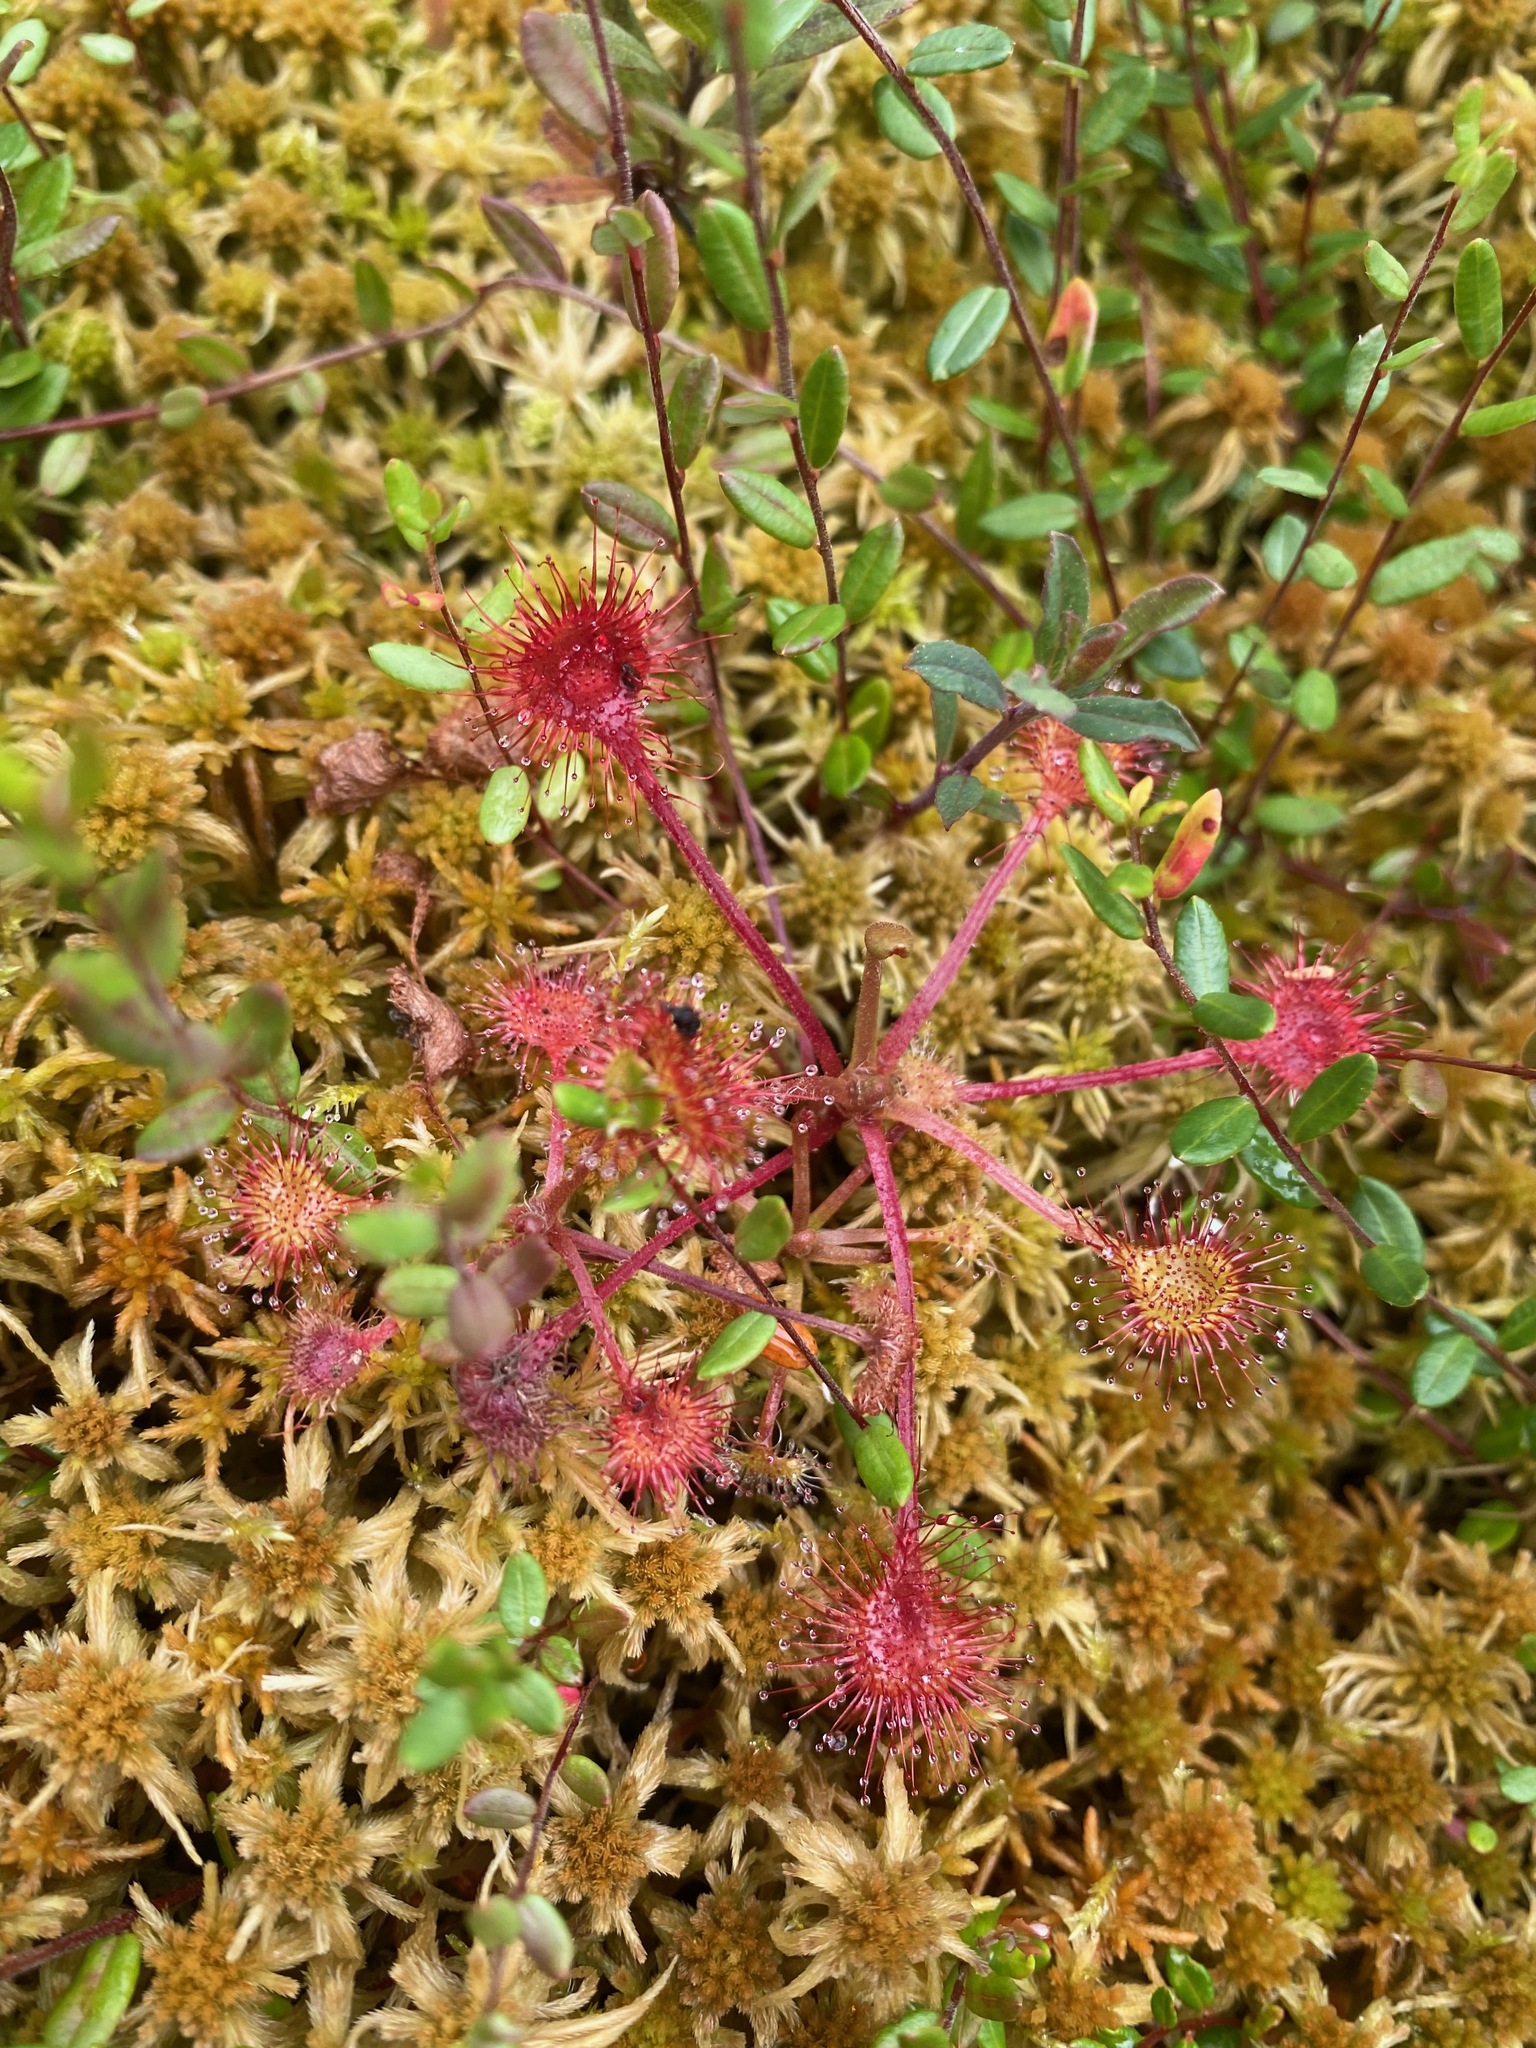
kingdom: Plantae
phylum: Tracheophyta
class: Magnoliopsida
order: Caryophyllales
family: Droseraceae
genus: Drosera
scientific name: Drosera rotundifolia
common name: Round-leaved sundew
